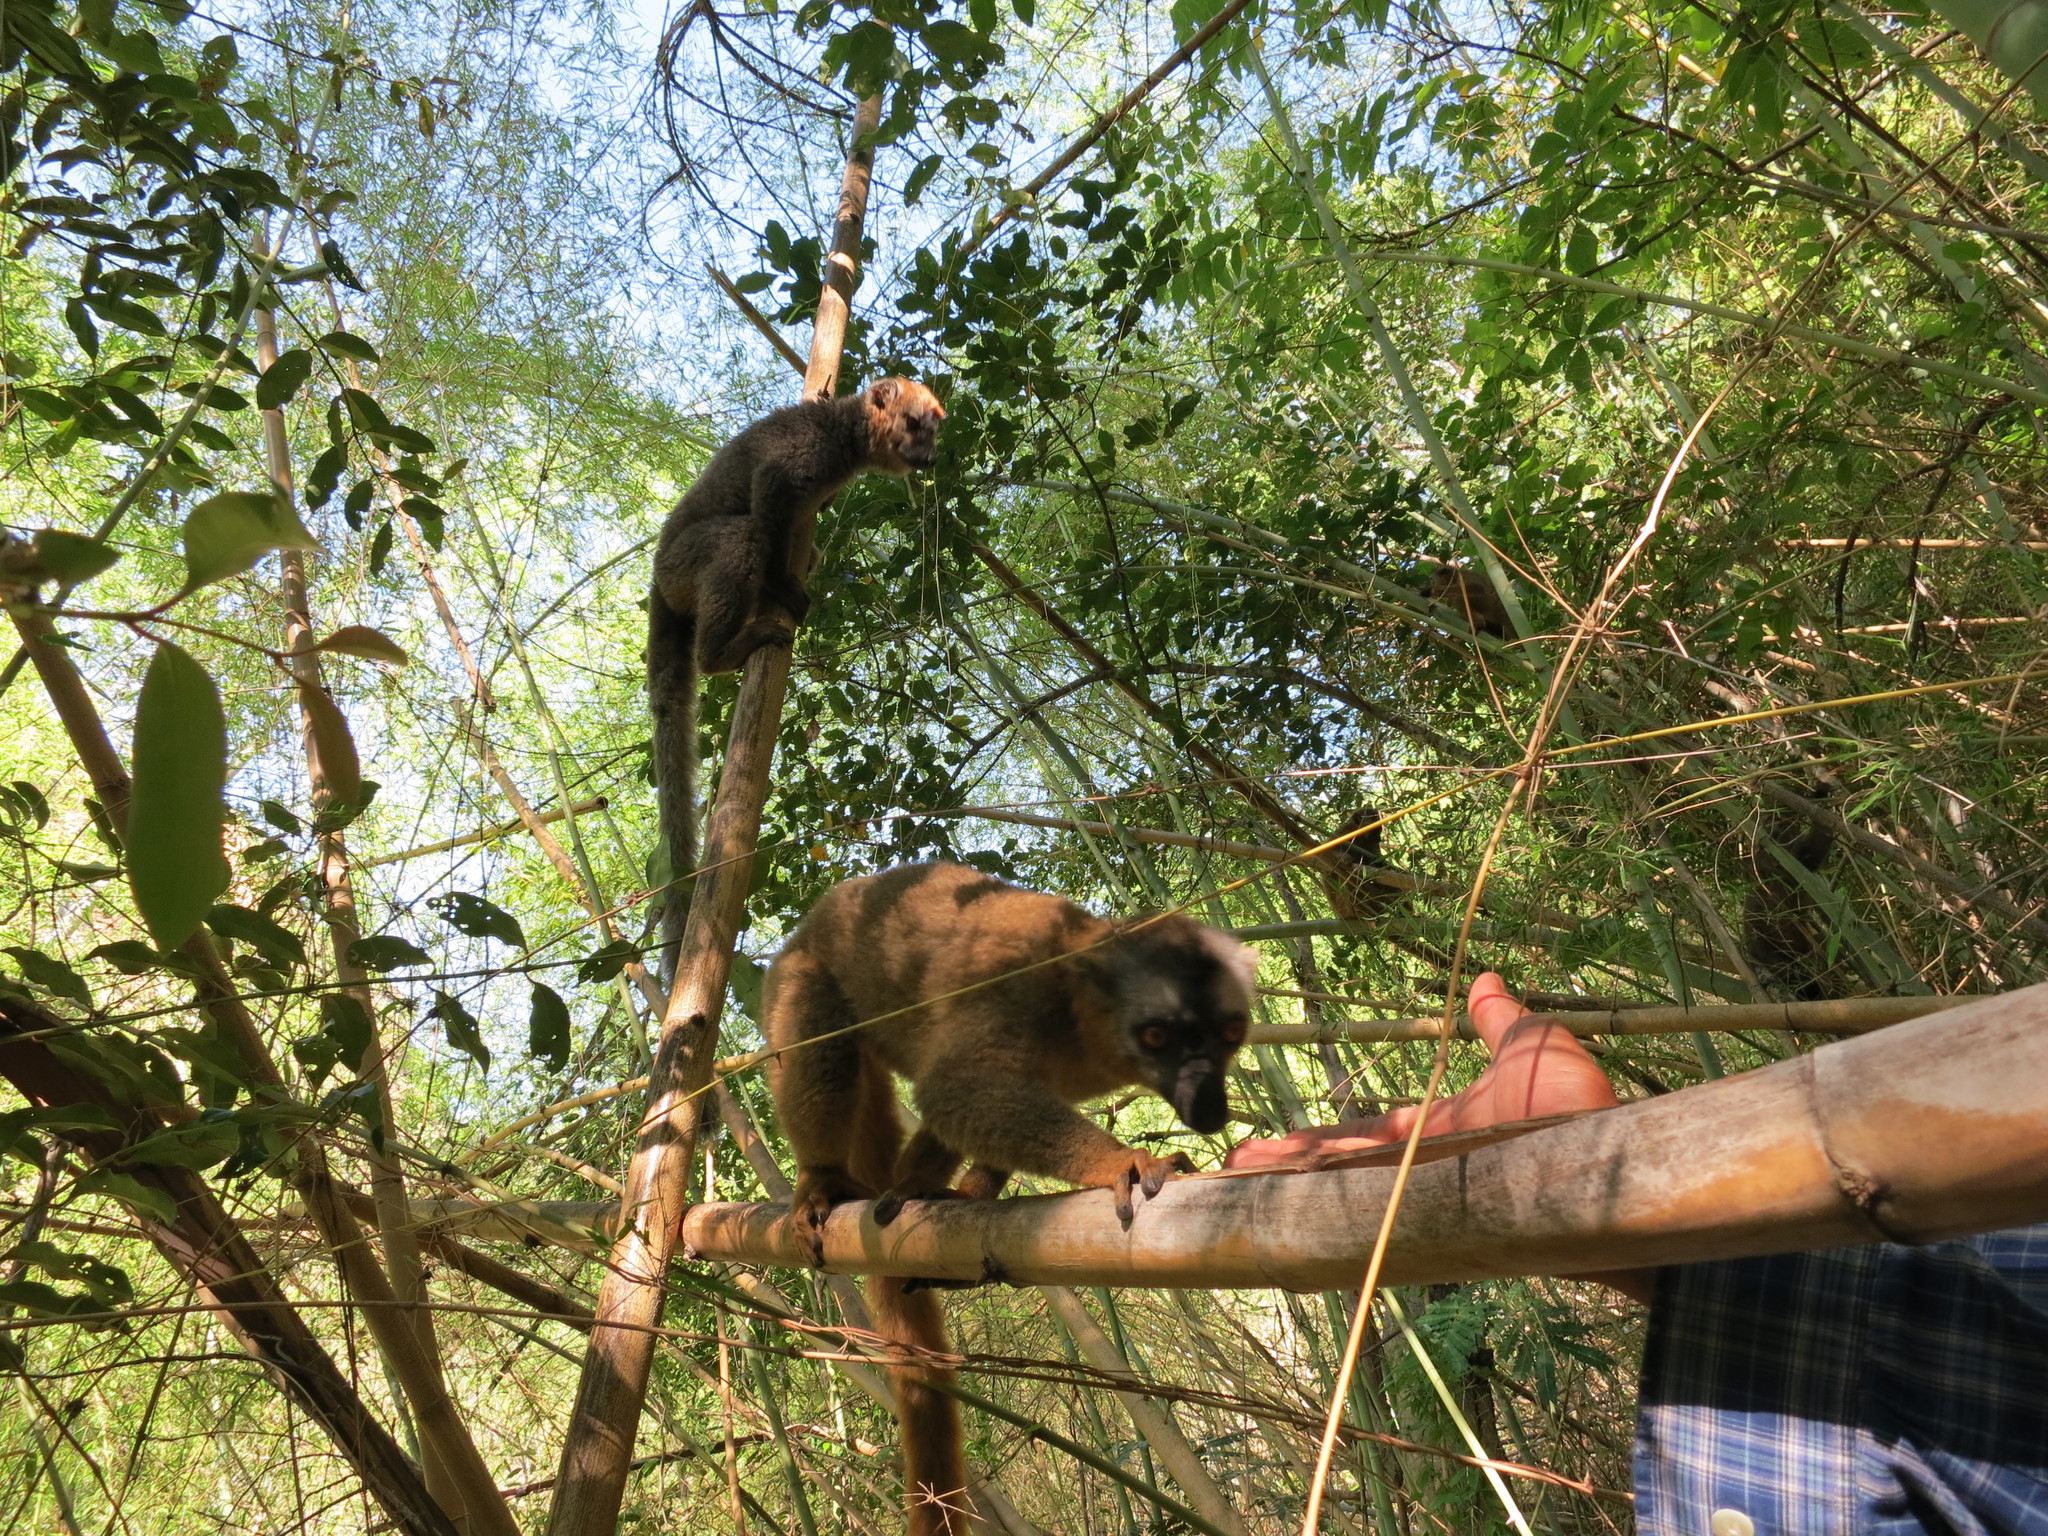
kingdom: Animalia
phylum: Chordata
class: Mammalia
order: Primates
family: Lemuridae
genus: Eulemur
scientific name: Eulemur rufifrons
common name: Red-fronted brown lemur
